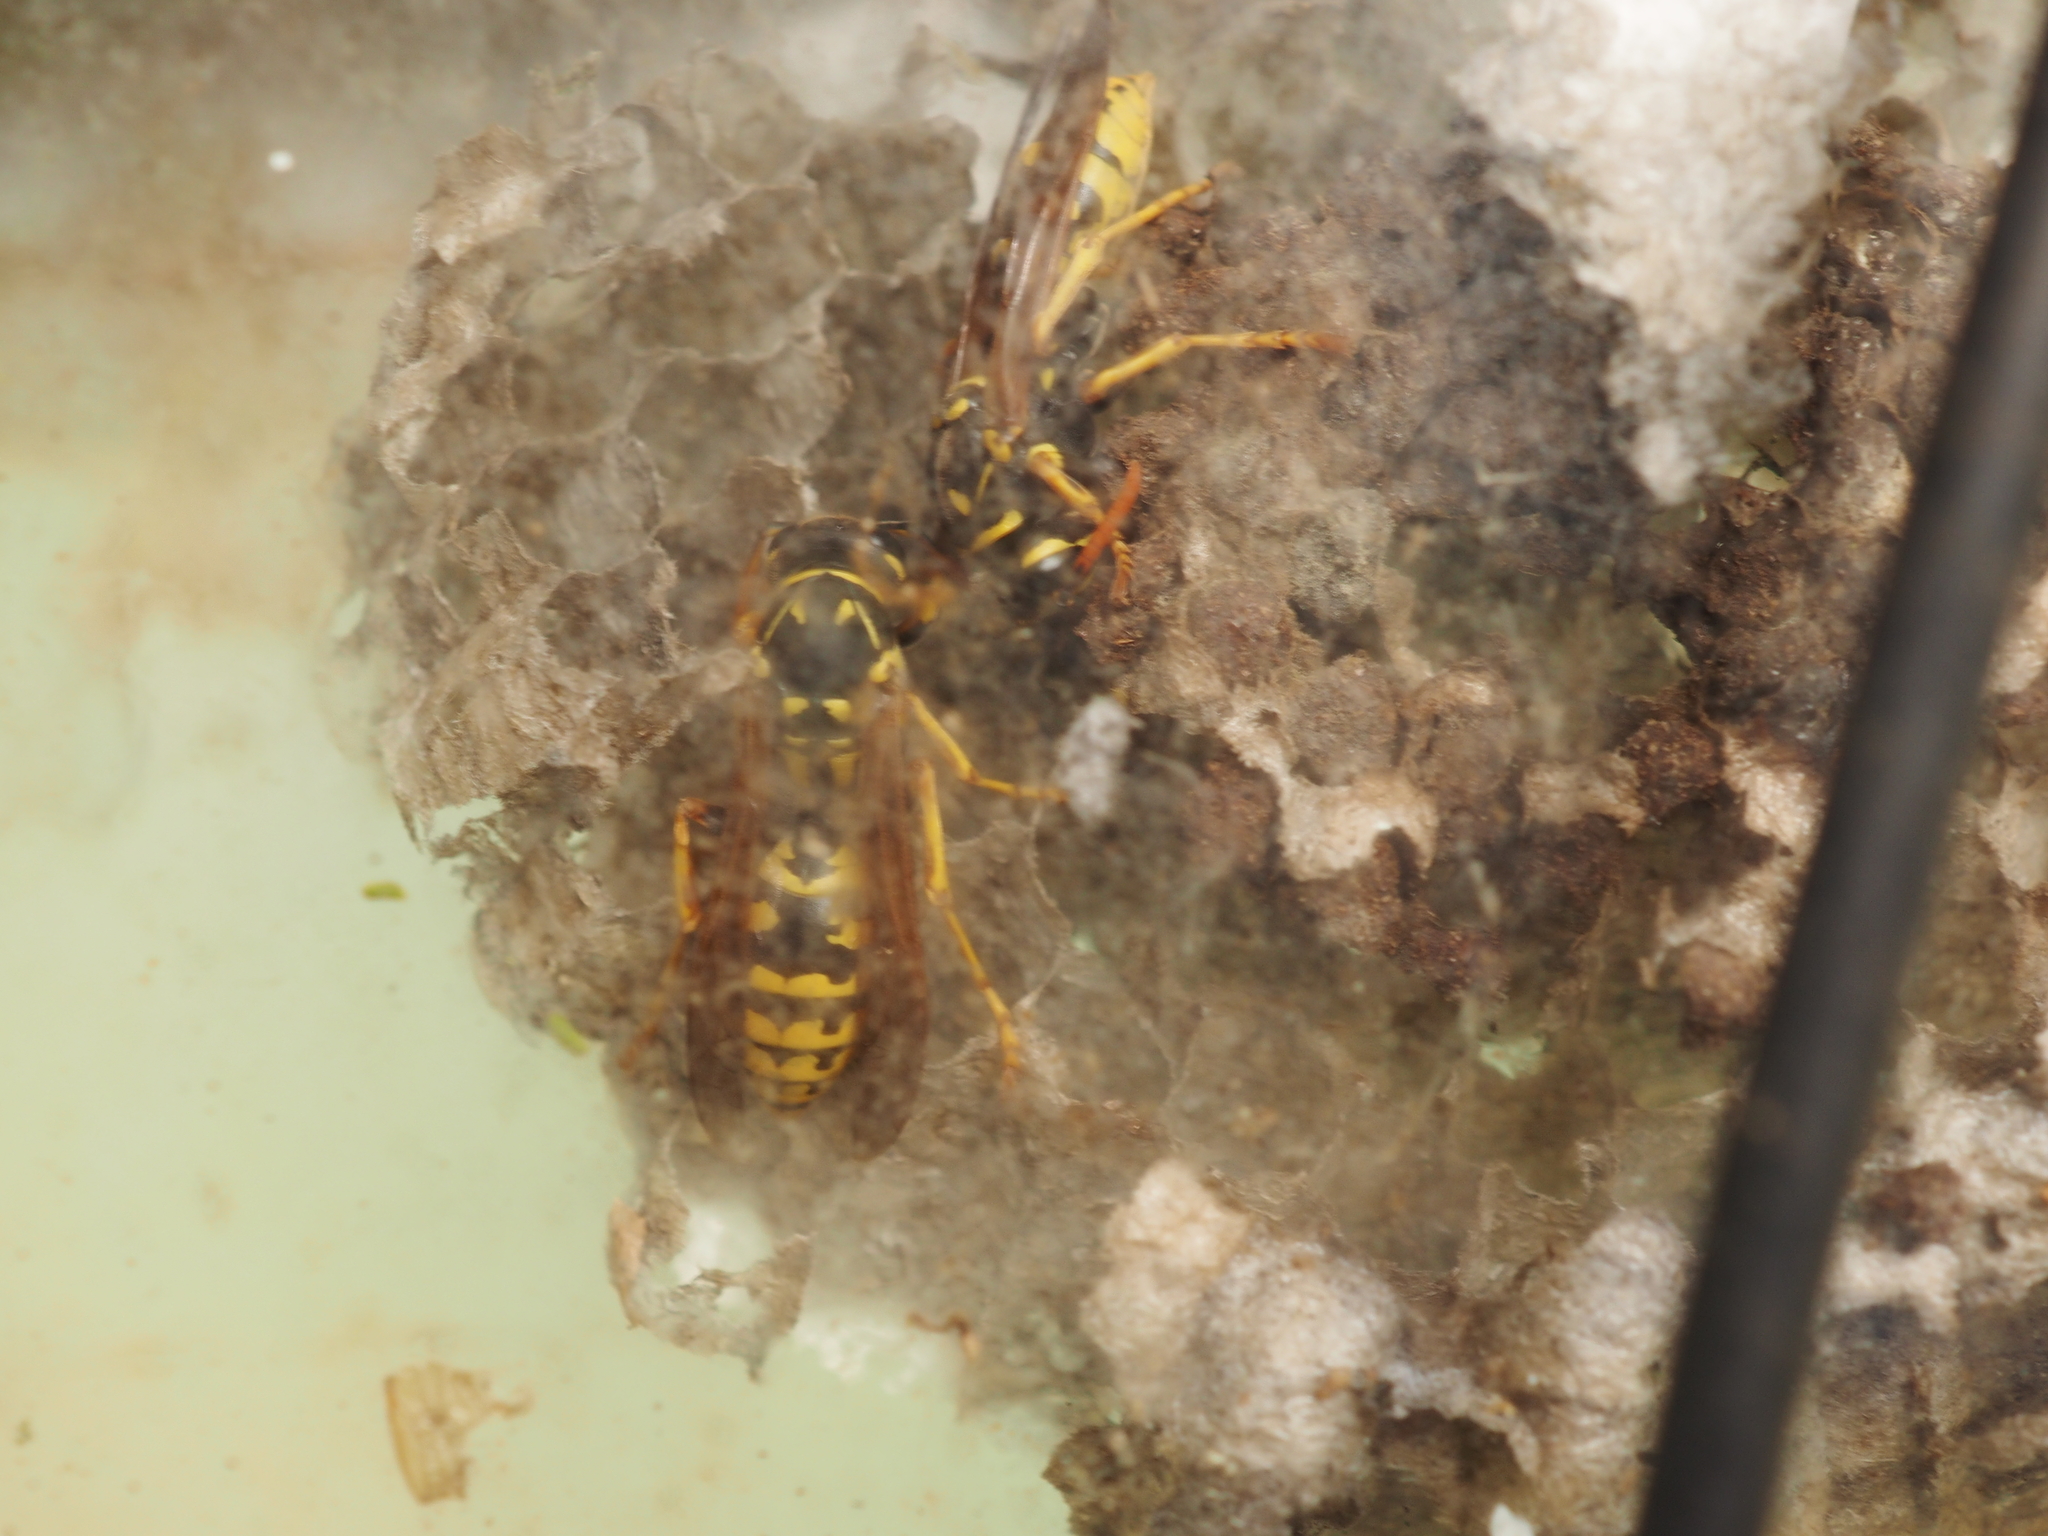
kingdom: Animalia
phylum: Arthropoda
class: Insecta
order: Hymenoptera
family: Eumenidae
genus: Polistes
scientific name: Polistes dominula
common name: Paper wasp
